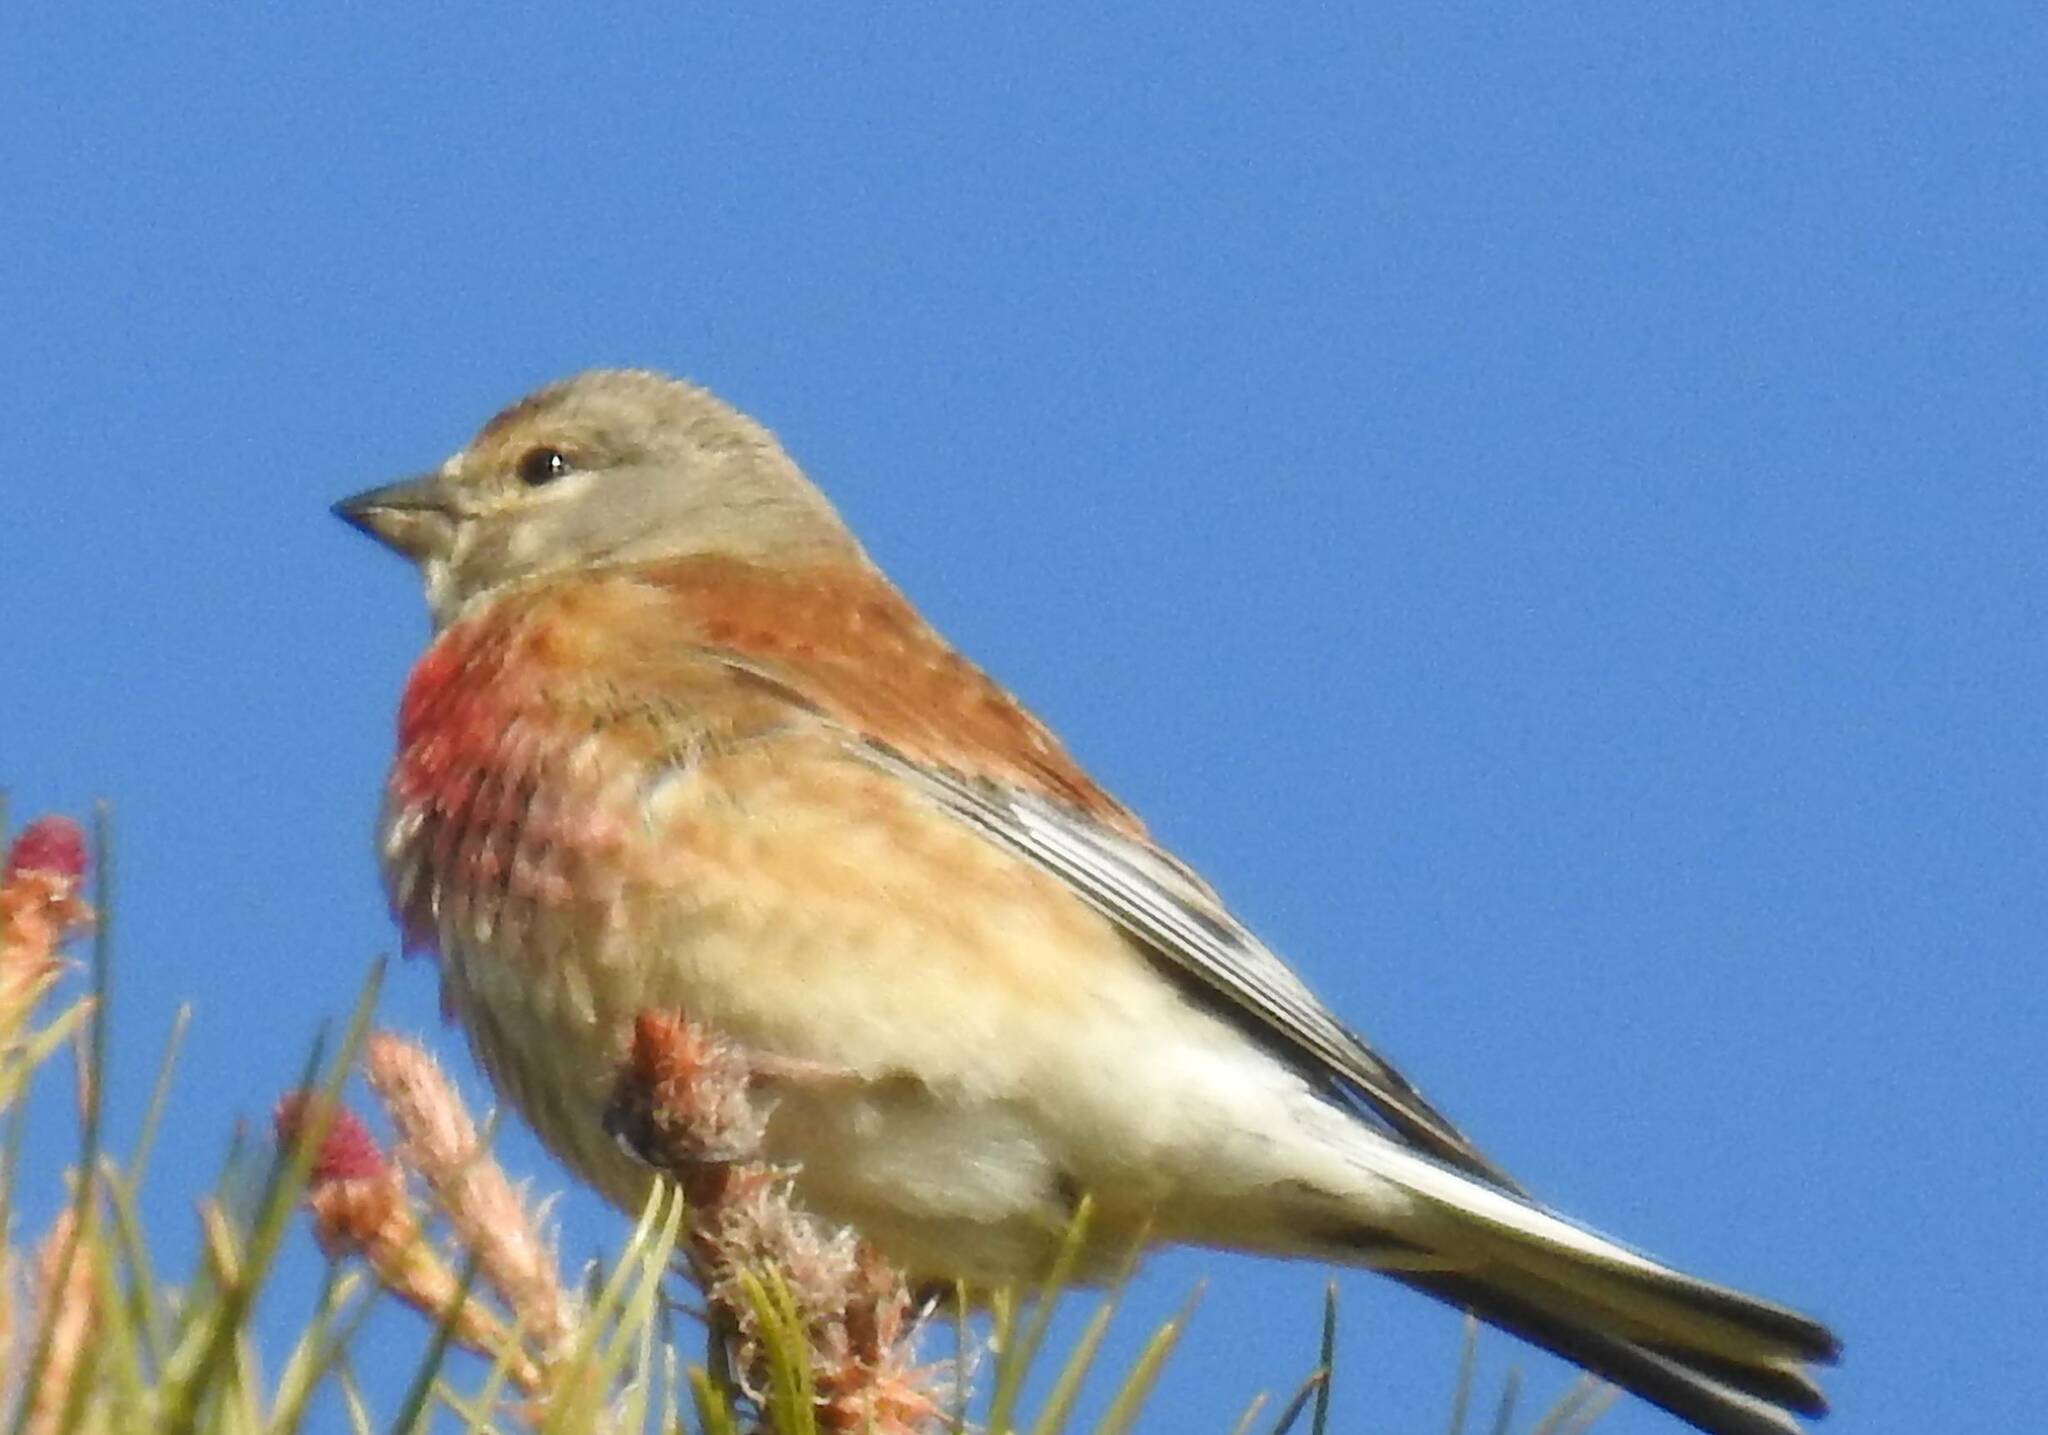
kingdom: Animalia
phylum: Chordata
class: Aves
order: Passeriformes
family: Fringillidae
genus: Linaria
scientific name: Linaria cannabina
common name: Common linnet
